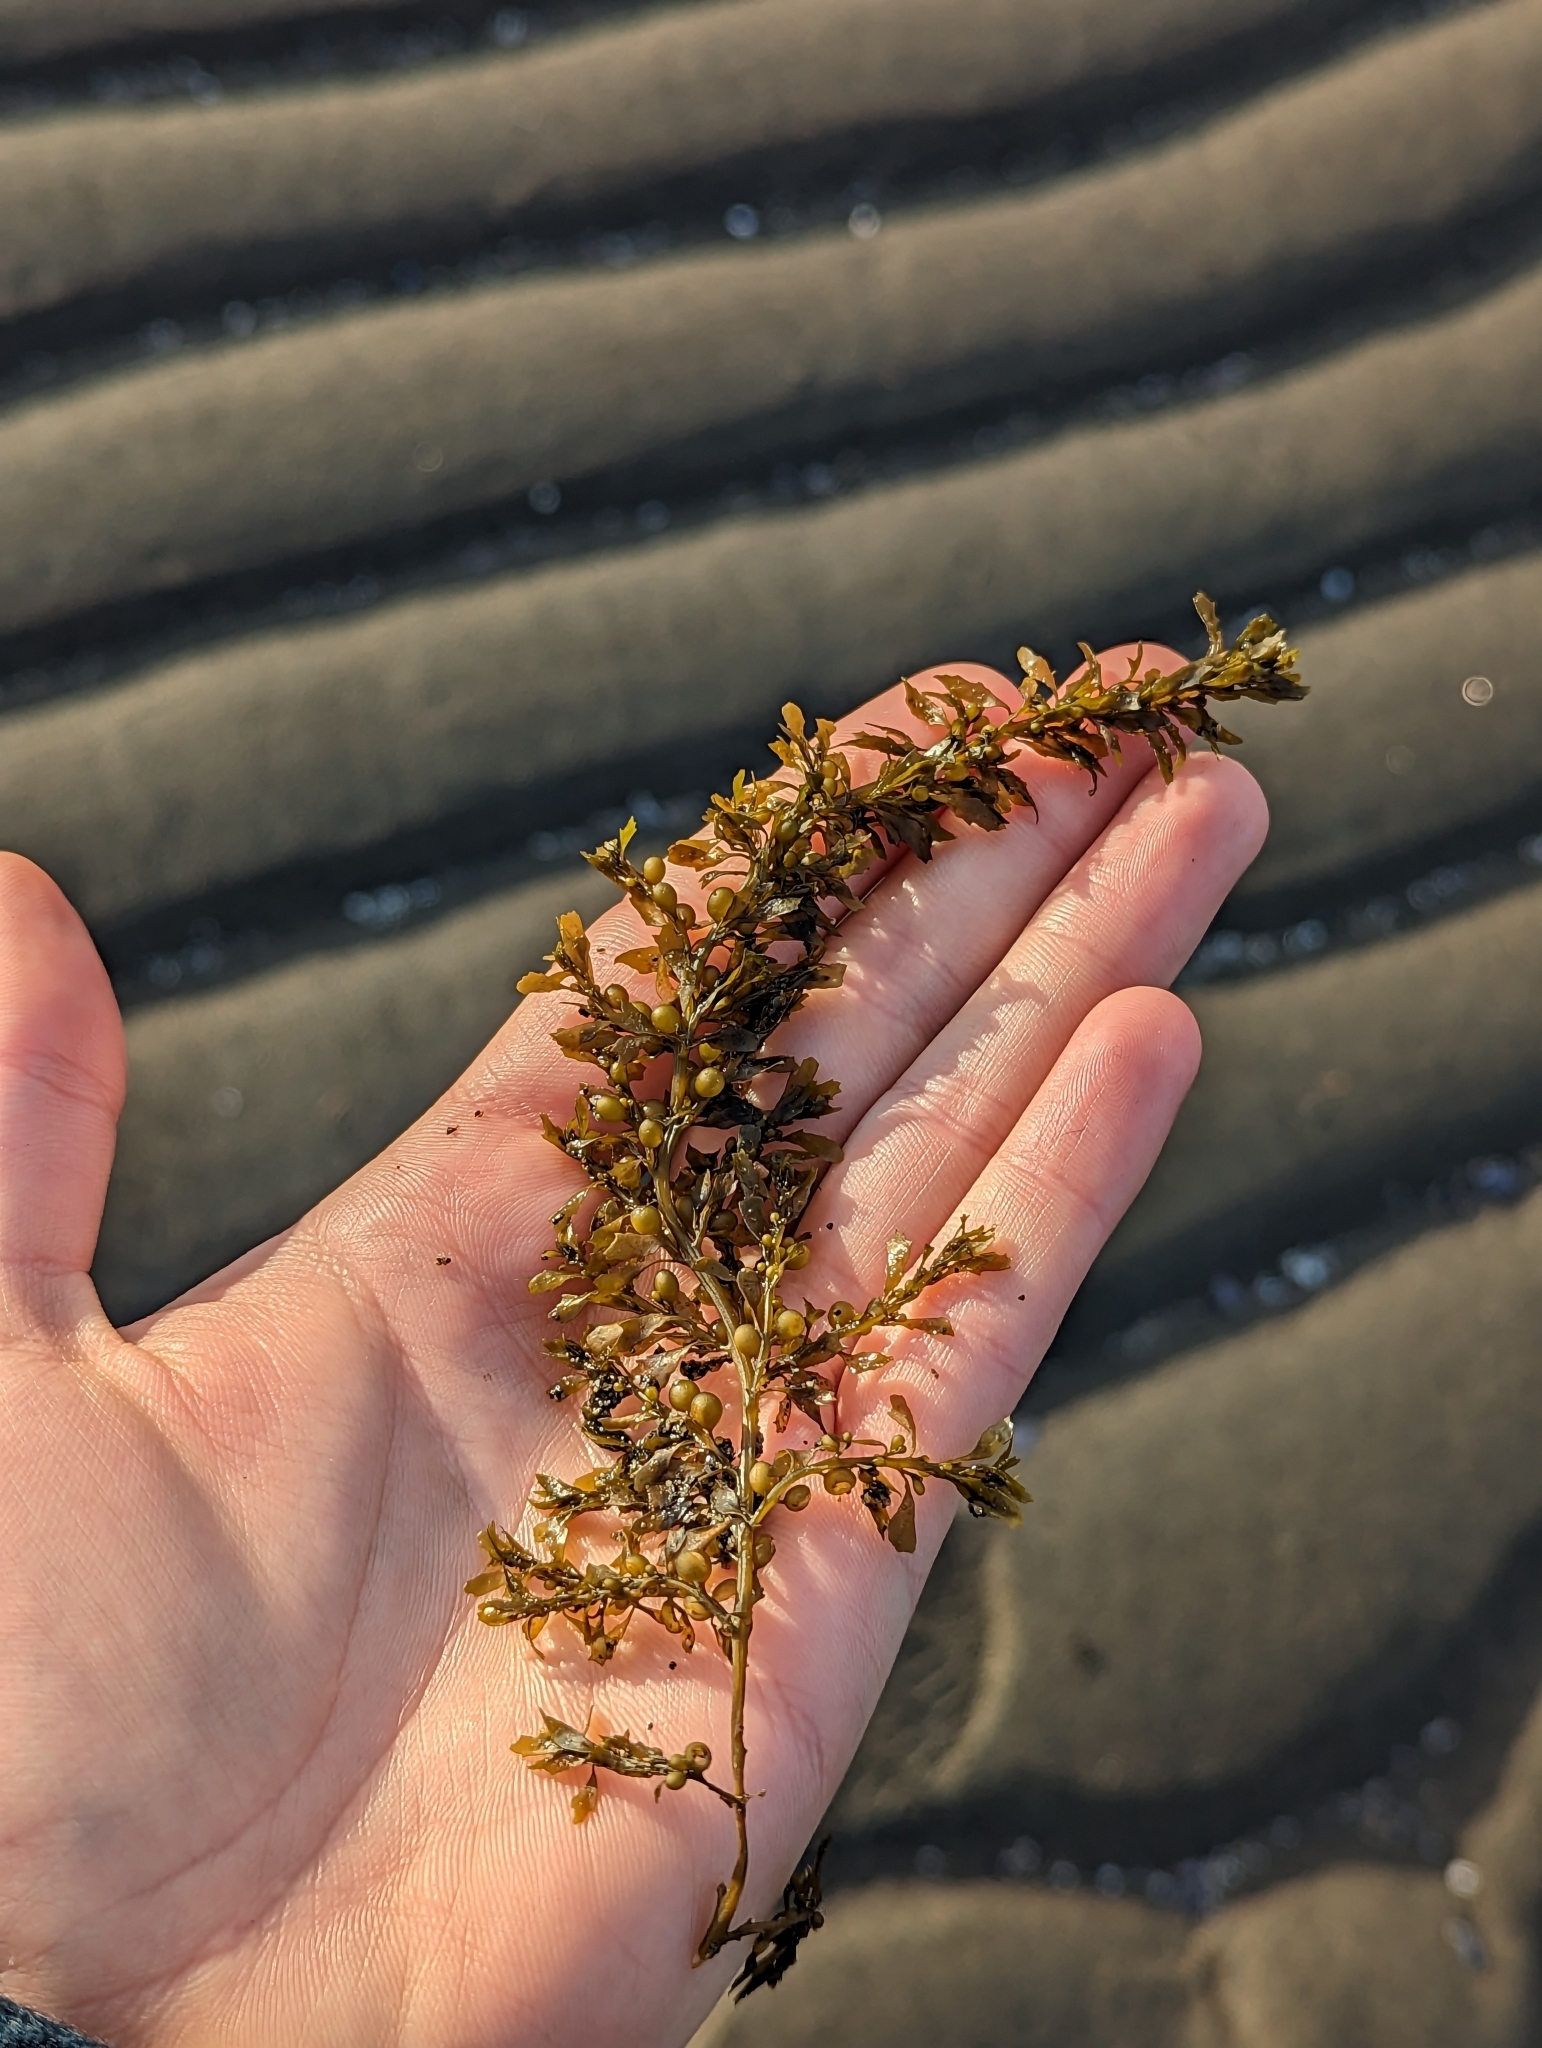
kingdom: Chromista
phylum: Ochrophyta
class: Phaeophyceae
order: Fucales
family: Sargassaceae
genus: Sargassum
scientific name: Sargassum muticum
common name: Japweed
